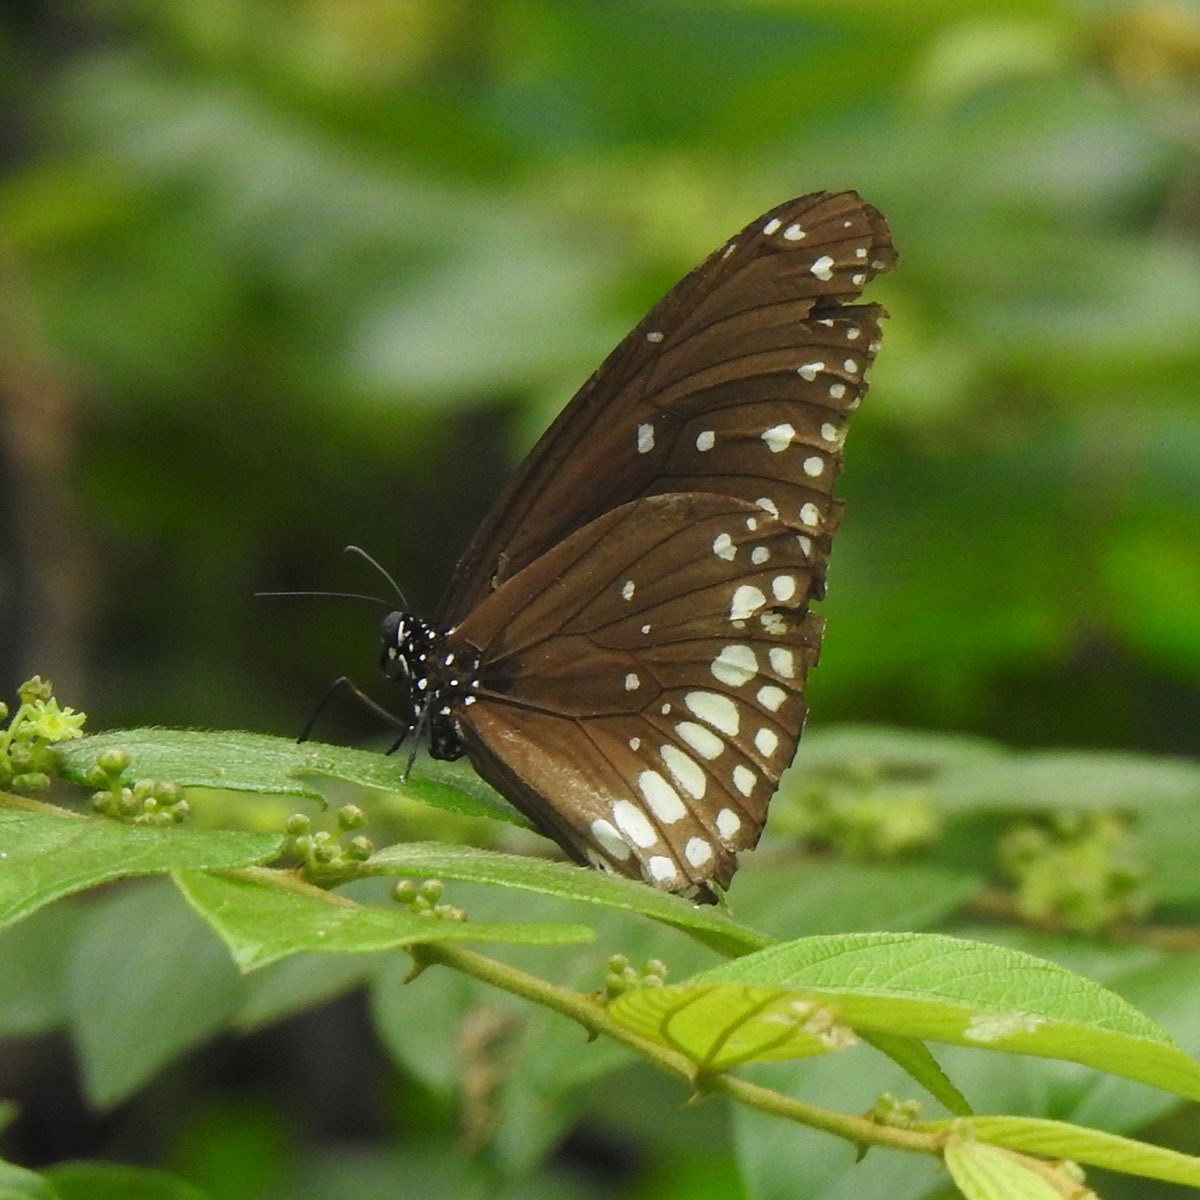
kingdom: Animalia
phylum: Arthropoda
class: Insecta
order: Lepidoptera
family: Nymphalidae
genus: Euploea
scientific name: Euploea core
